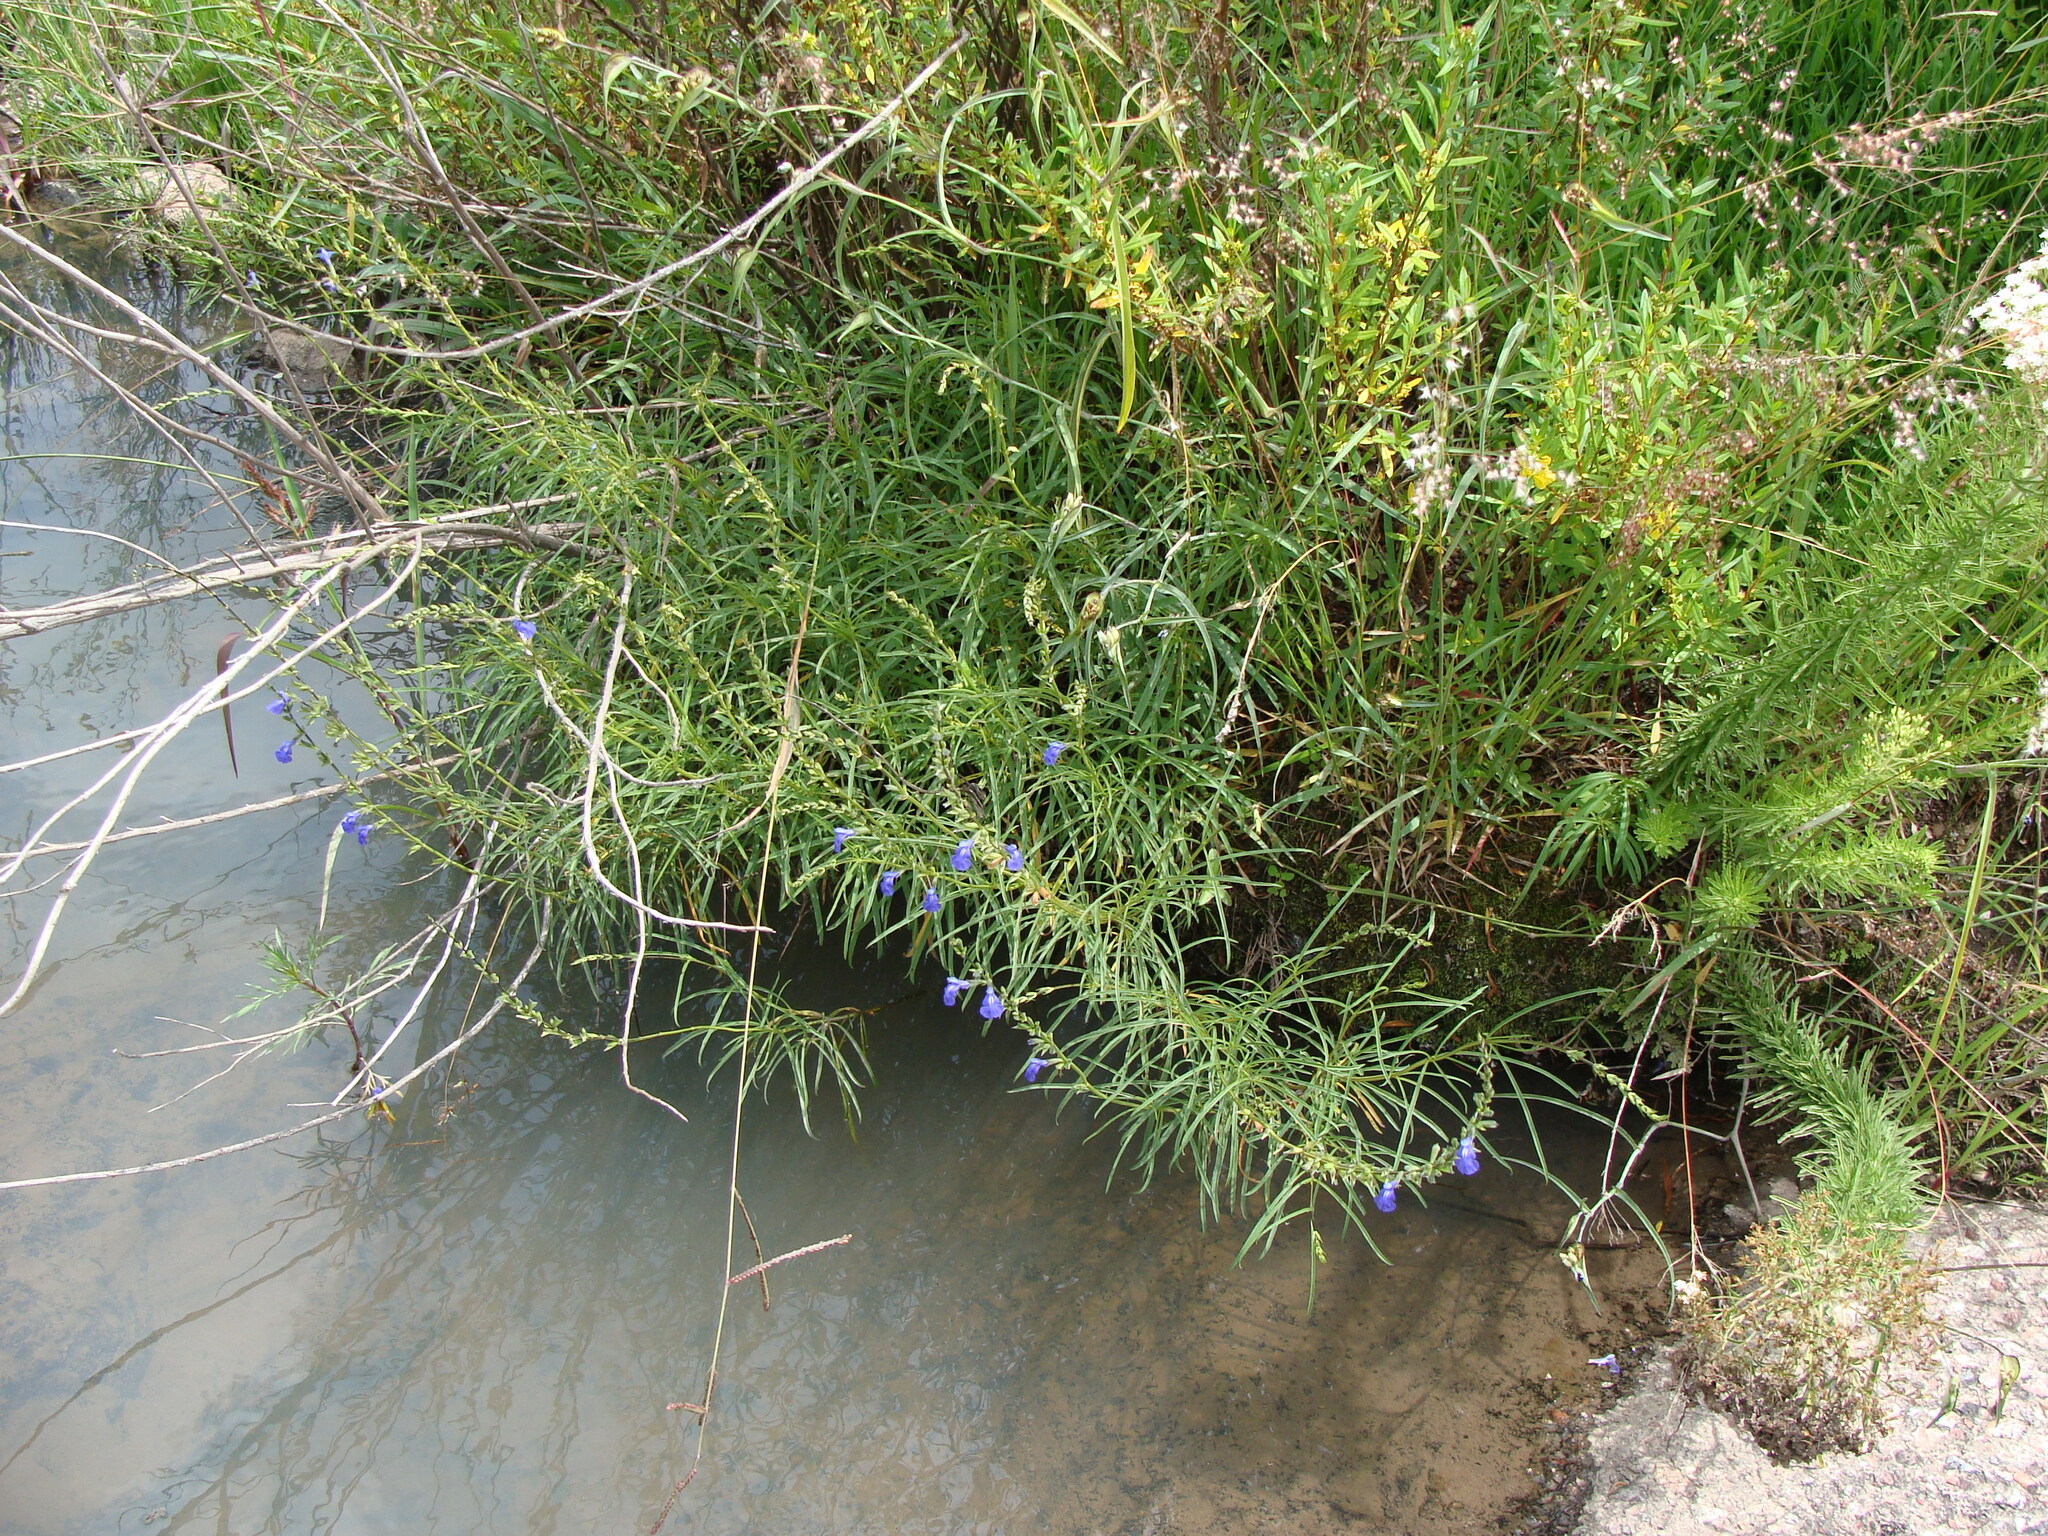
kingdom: Plantae
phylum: Tracheophyta
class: Magnoliopsida
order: Myrtales
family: Onagraceae
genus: Ludwigia
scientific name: Ludwigia octovalvis
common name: Water-primrose
